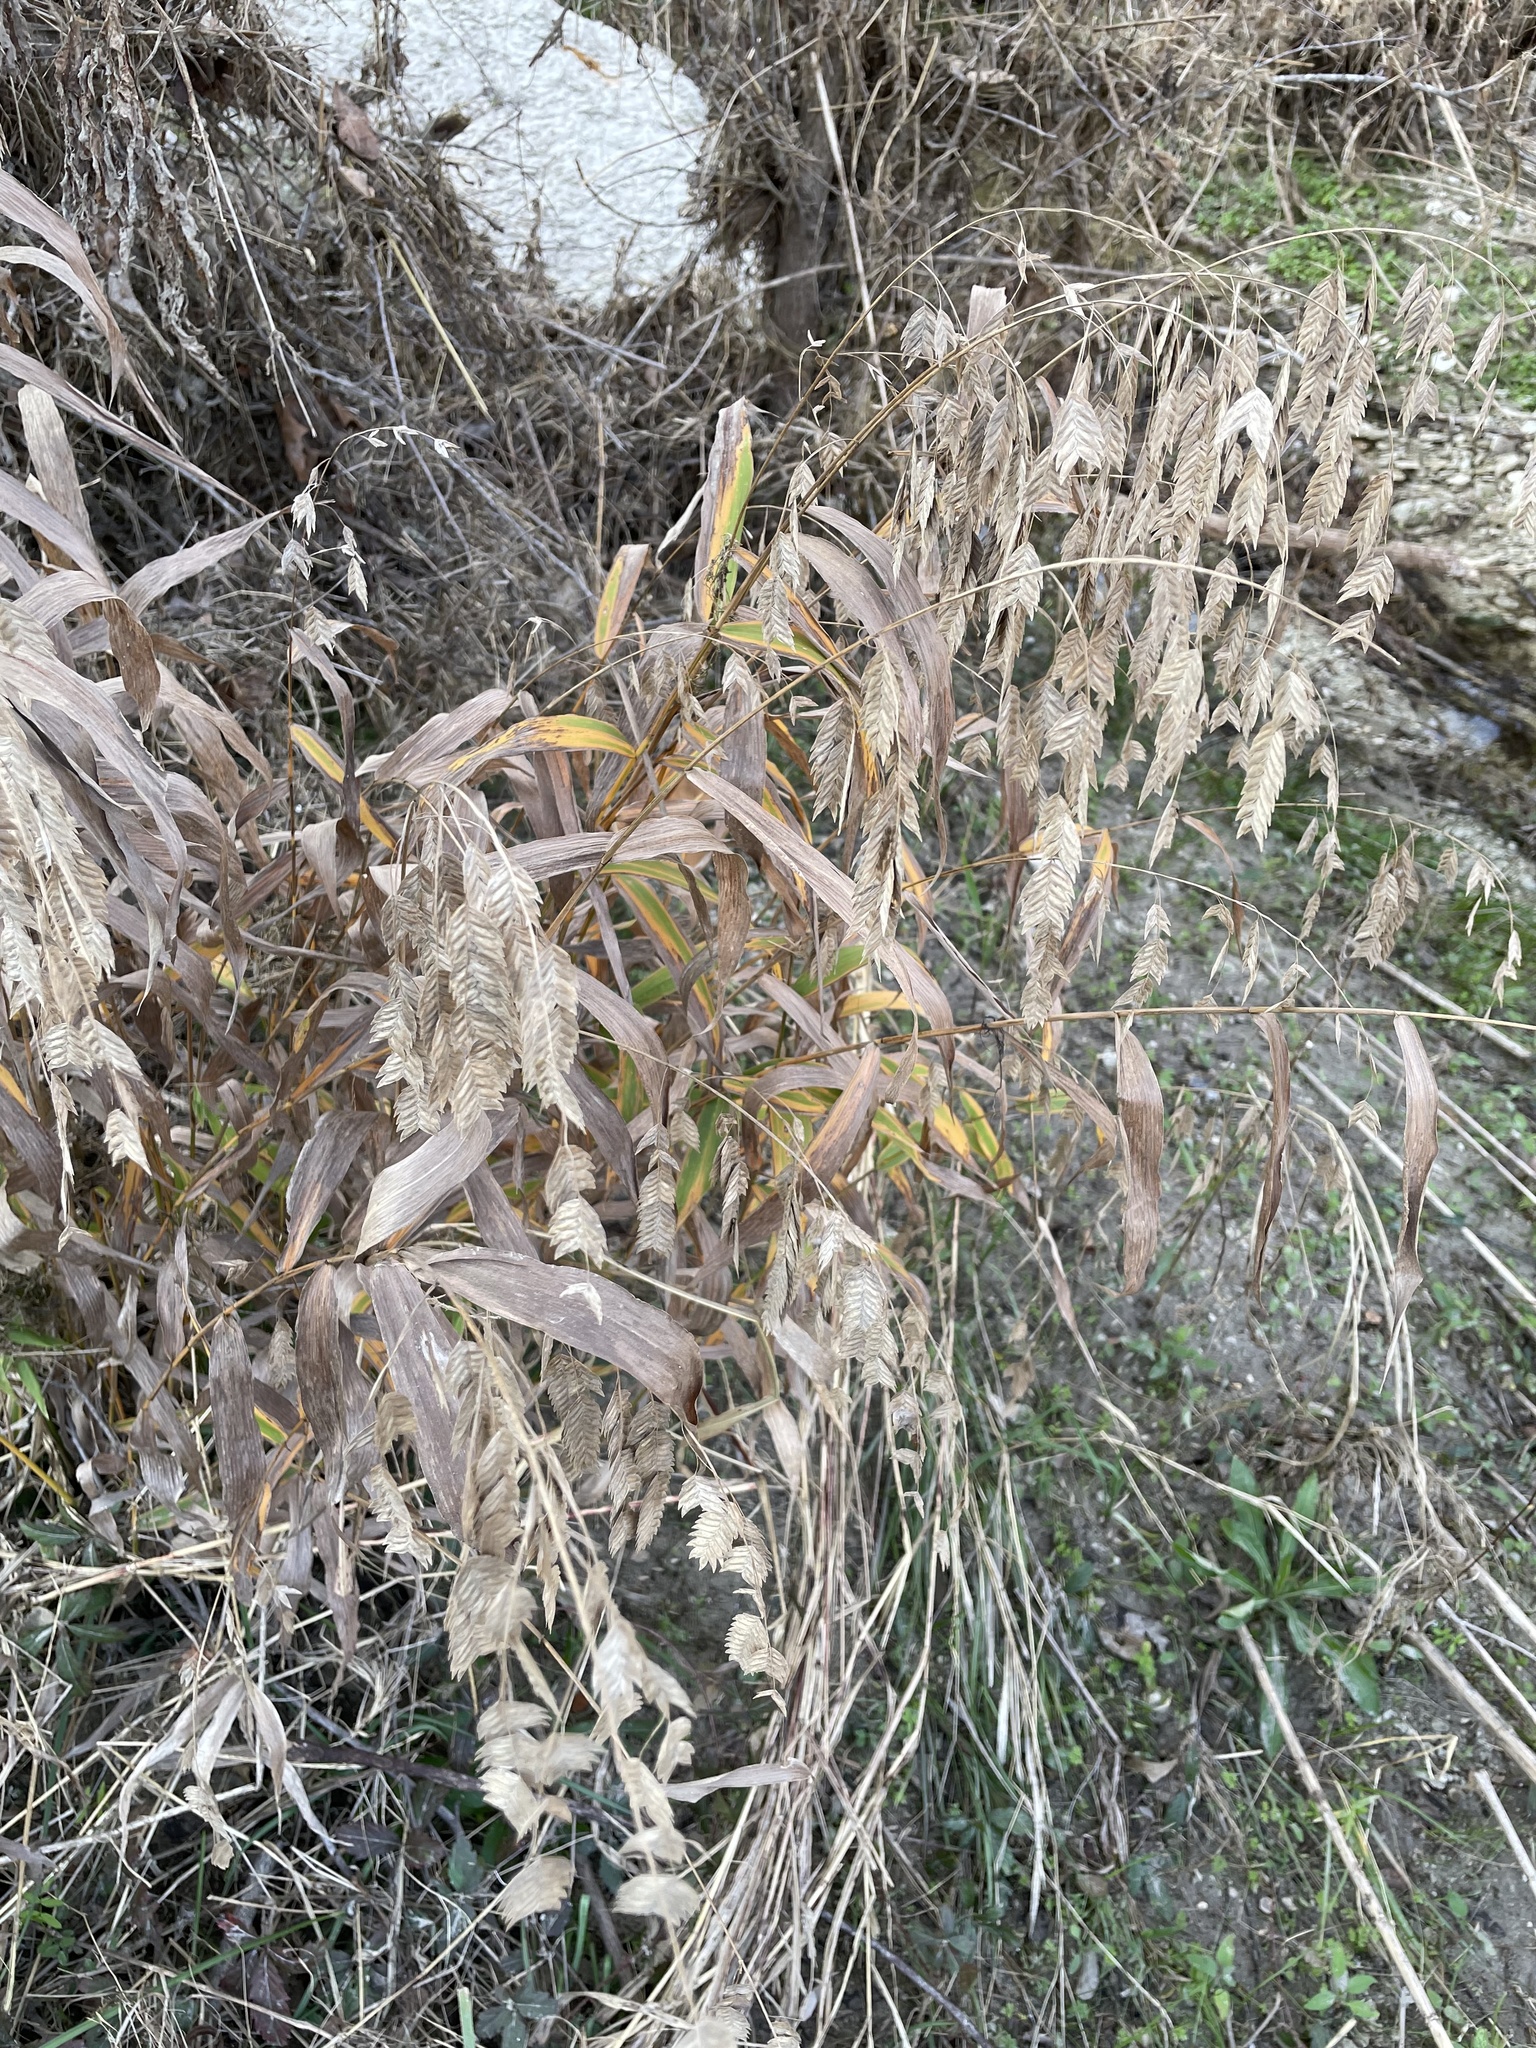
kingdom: Plantae
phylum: Tracheophyta
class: Liliopsida
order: Poales
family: Poaceae
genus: Chasmanthium
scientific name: Chasmanthium latifolium
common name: Broad-leaved chasmanthium
